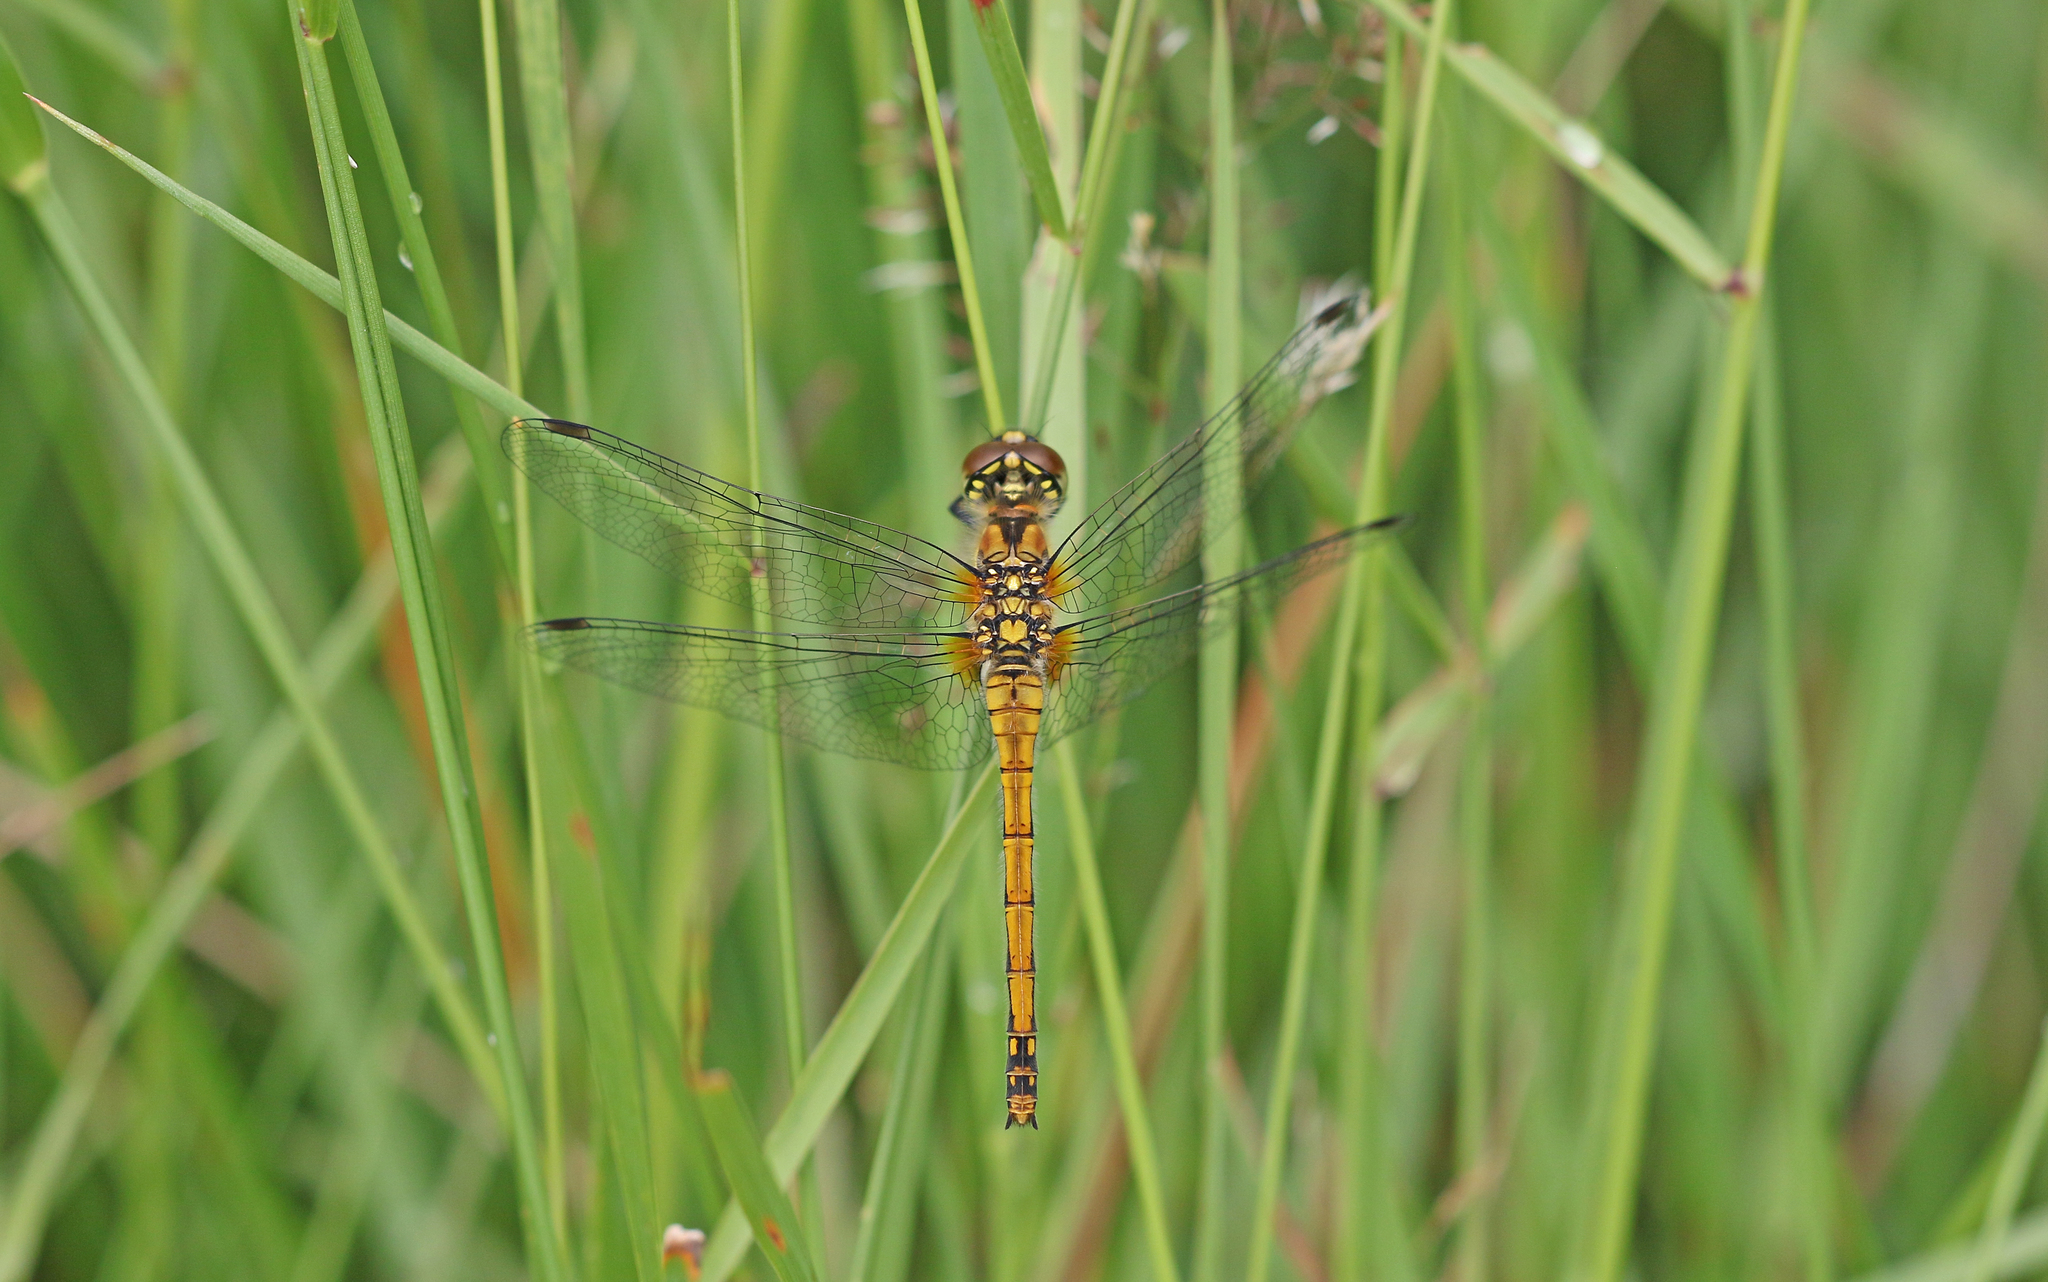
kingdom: Animalia
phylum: Arthropoda
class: Insecta
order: Odonata
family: Libellulidae
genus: Sympetrum
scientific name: Sympetrum danae
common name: Black darter
